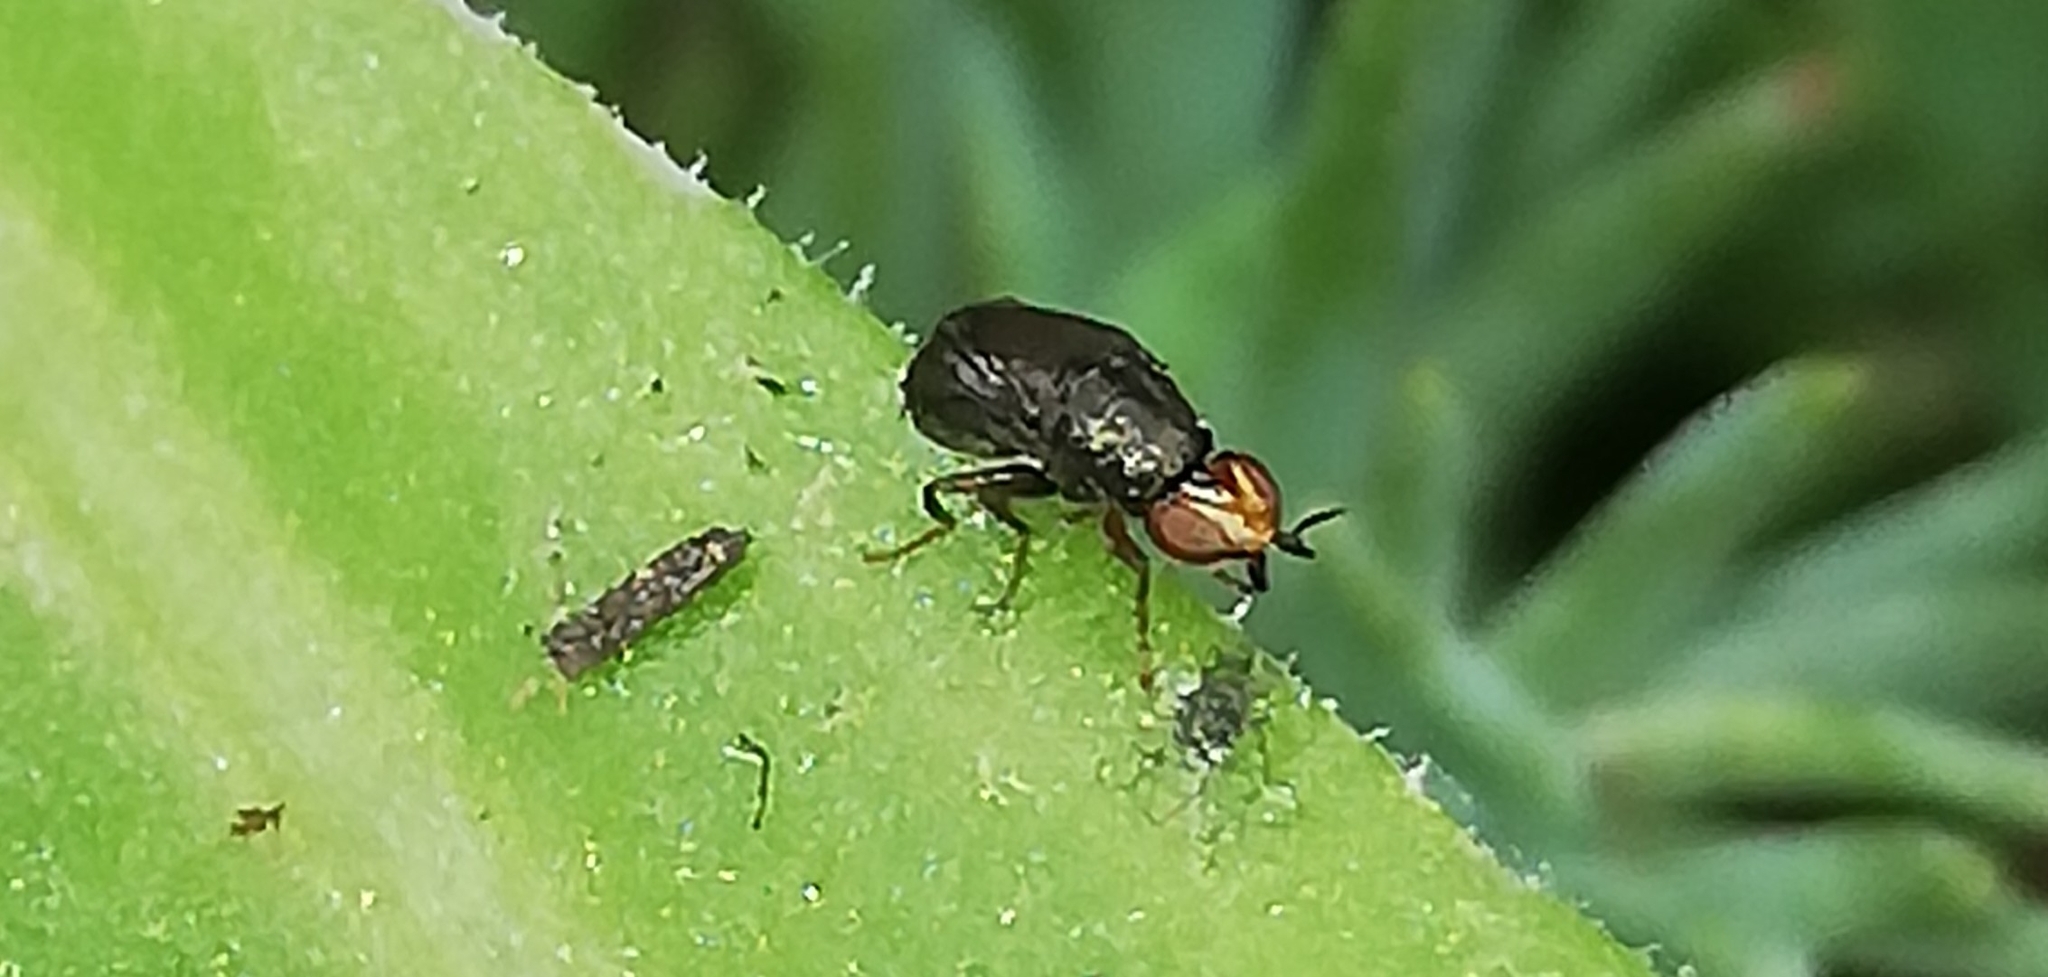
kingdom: Animalia
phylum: Arthropoda
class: Insecta
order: Diptera
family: Chloropidae
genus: Camarota
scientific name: Camarota curvipennis
